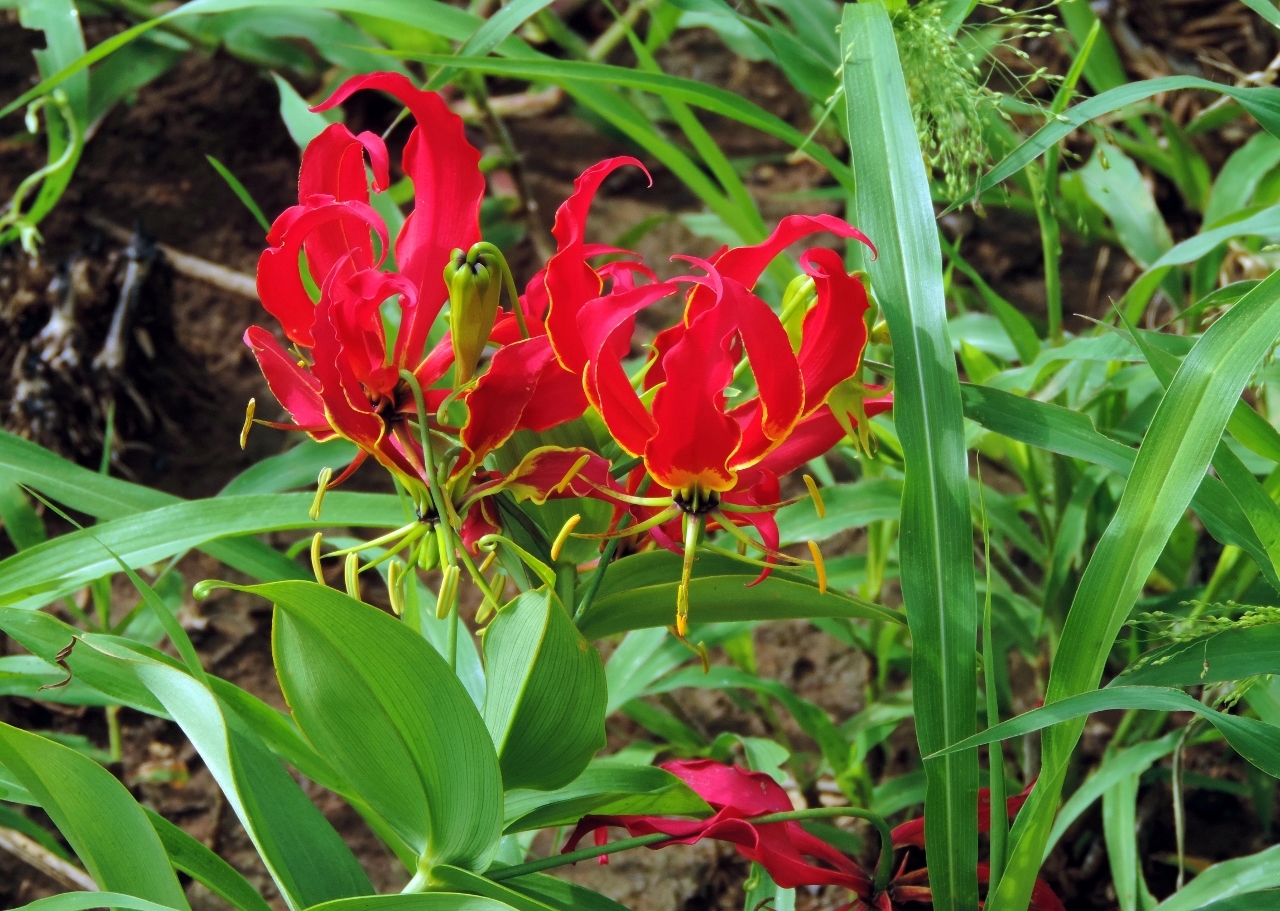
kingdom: Plantae
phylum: Tracheophyta
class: Liliopsida
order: Liliales
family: Colchicaceae
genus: Gloriosa
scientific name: Gloriosa superba
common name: Flame lily
